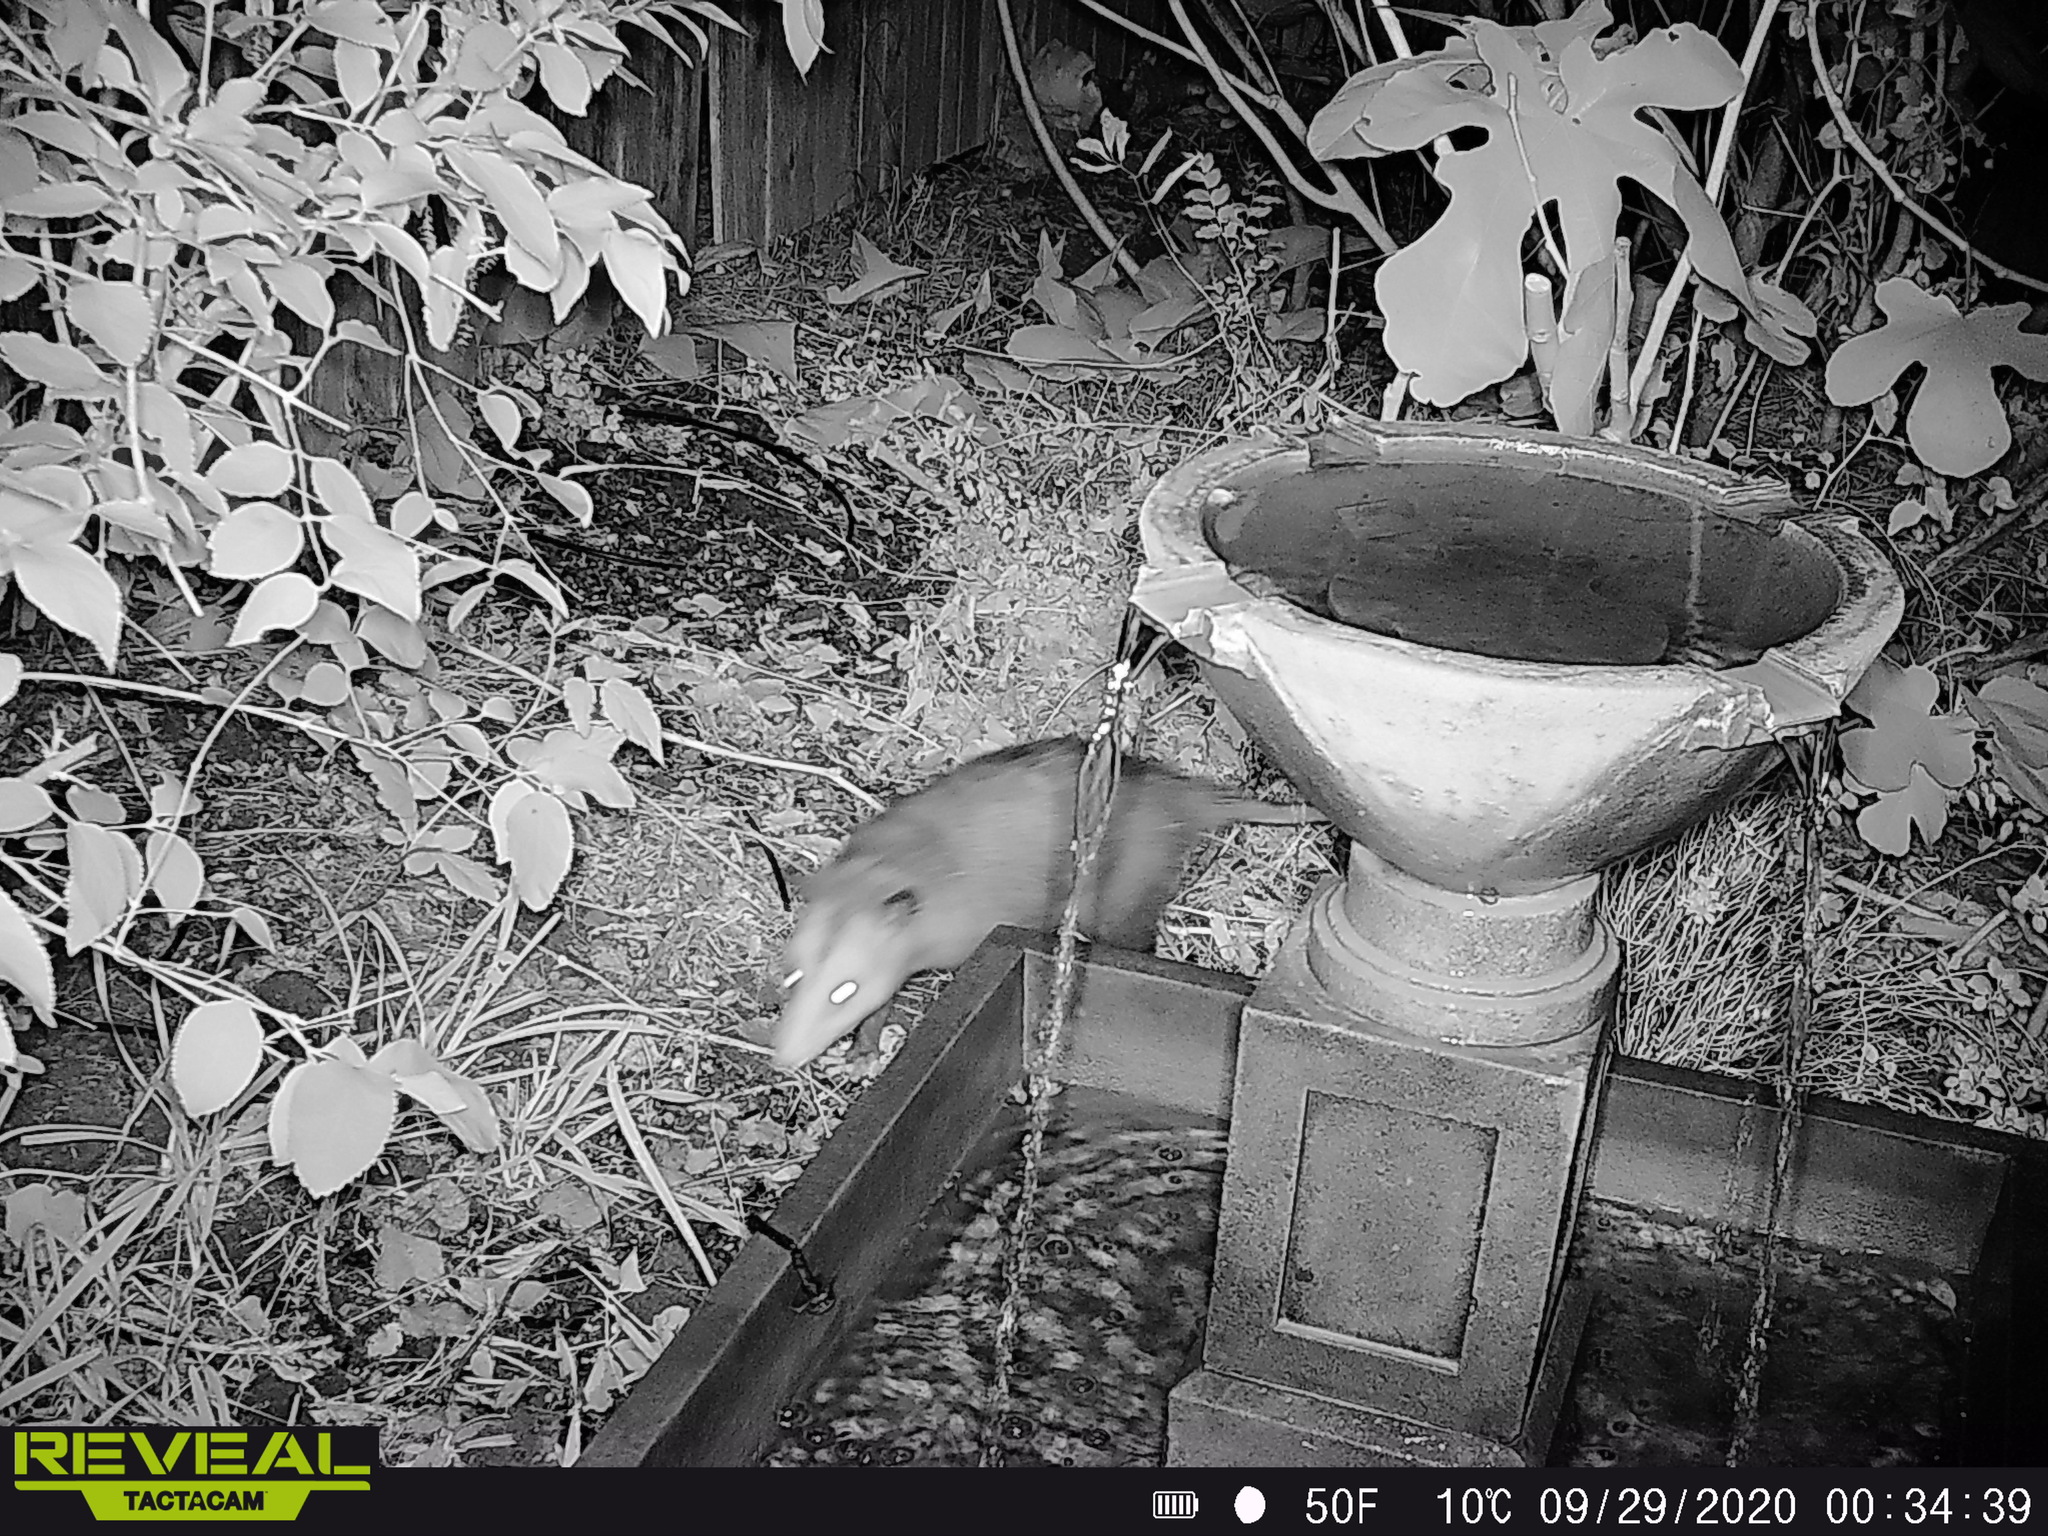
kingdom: Animalia
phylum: Chordata
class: Mammalia
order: Didelphimorphia
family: Didelphidae
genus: Didelphis
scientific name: Didelphis virginiana
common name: Virginia opossum
